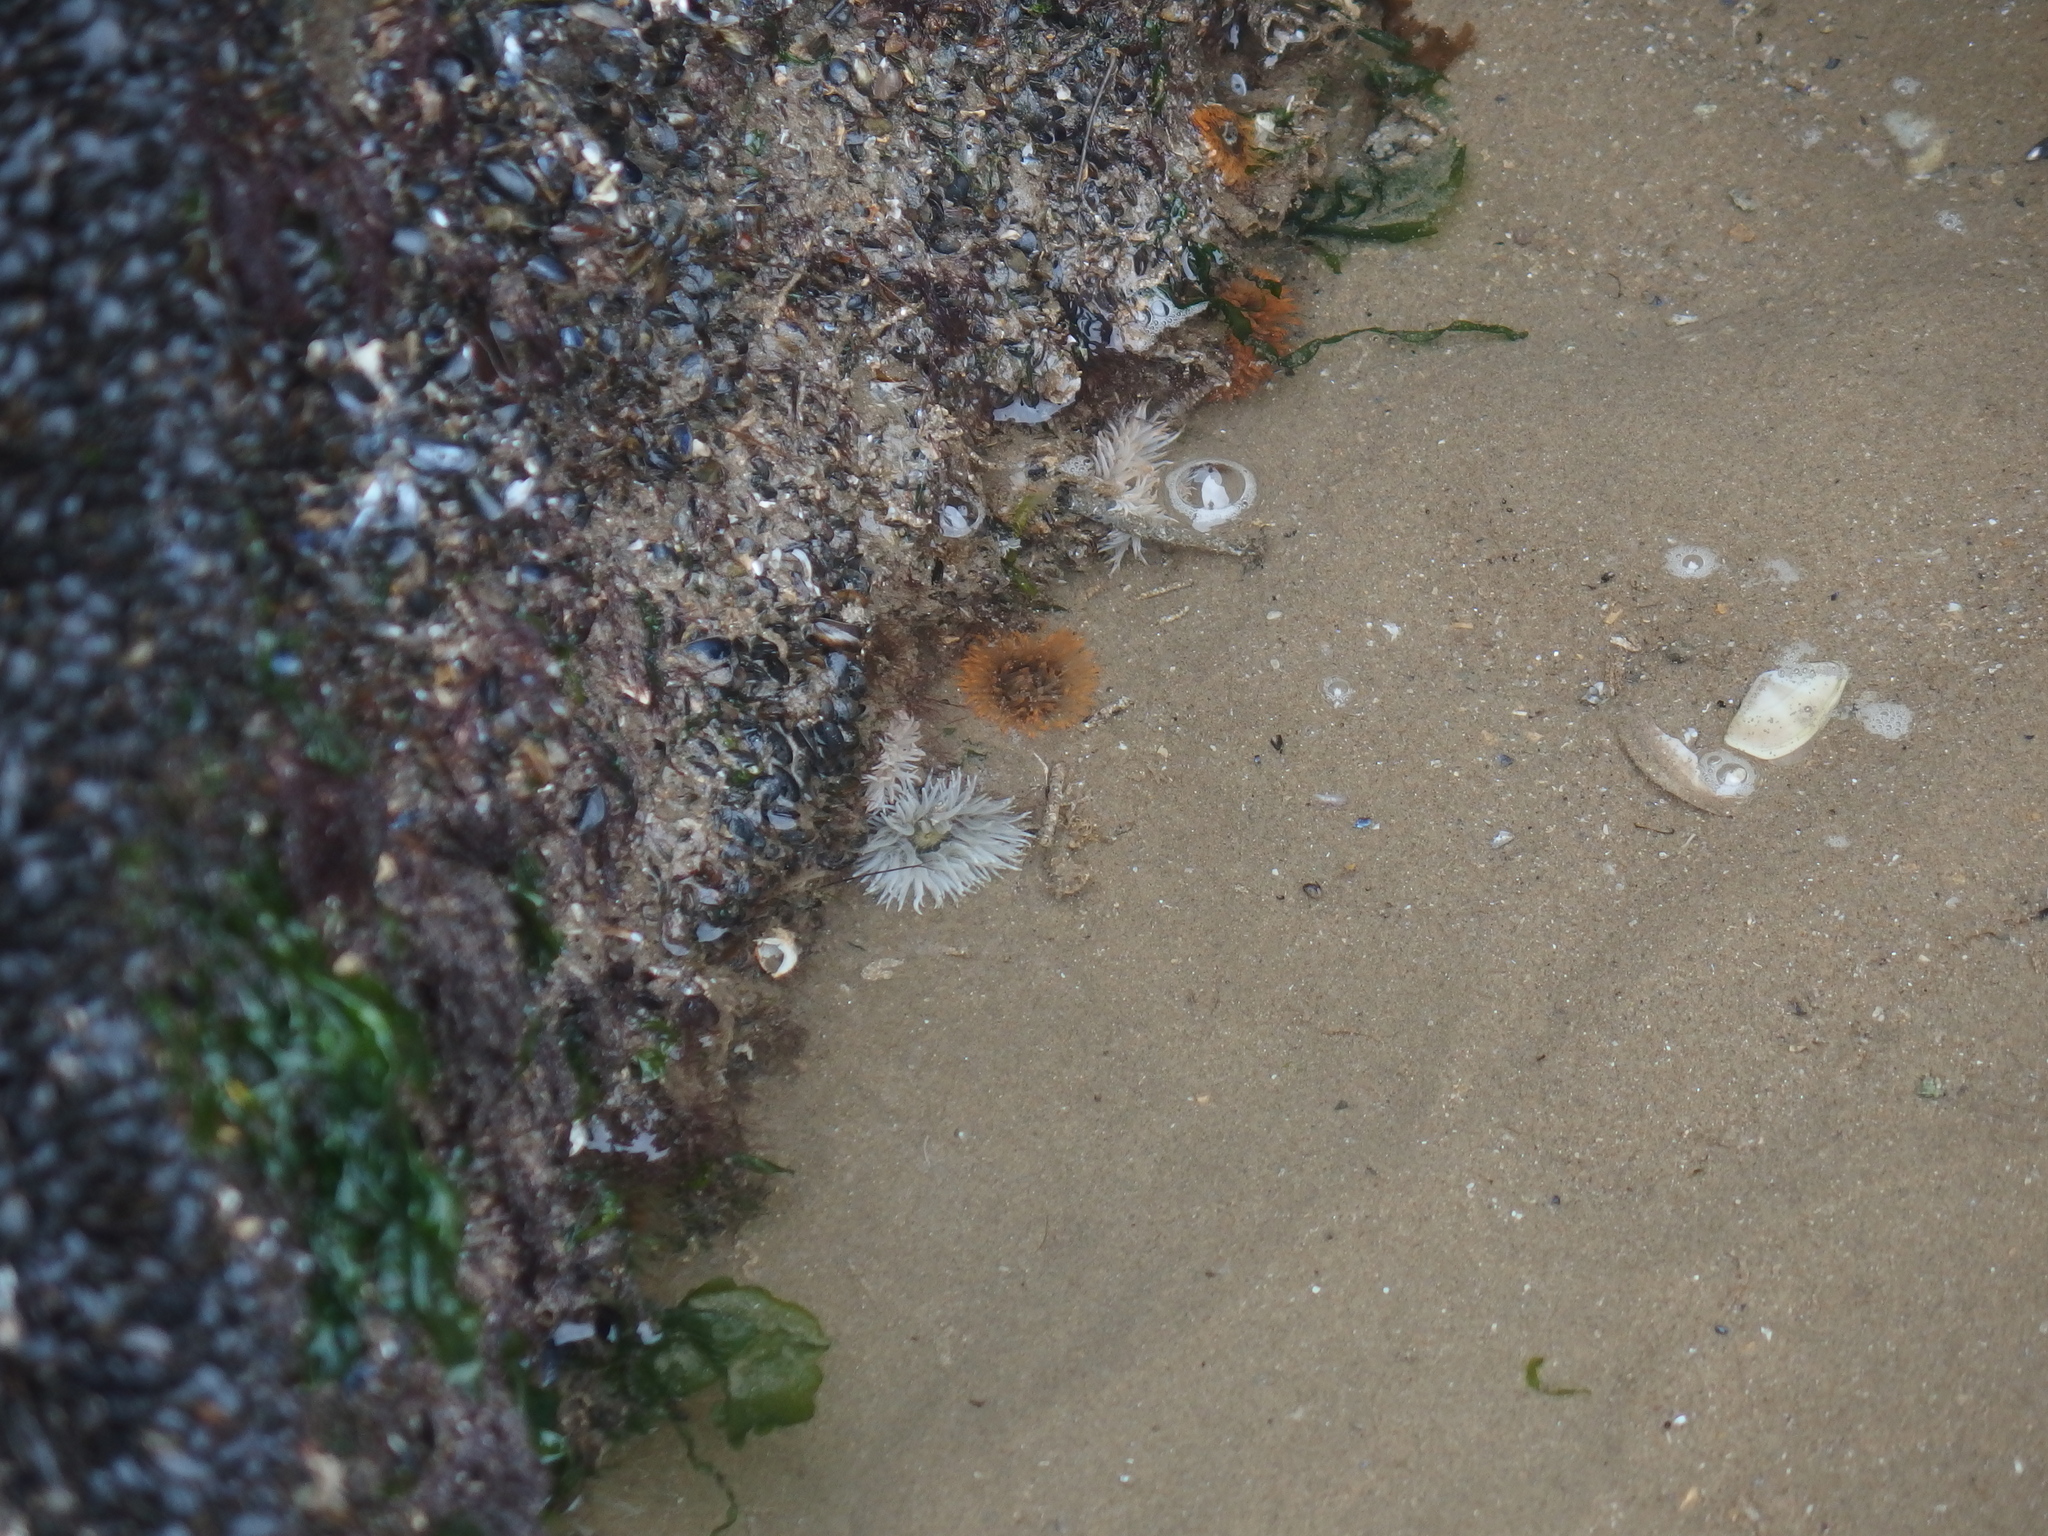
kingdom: Animalia
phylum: Cnidaria
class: Anthozoa
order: Actiniaria
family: Sagartiidae
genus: Cylista
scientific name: Cylista troglodytes
